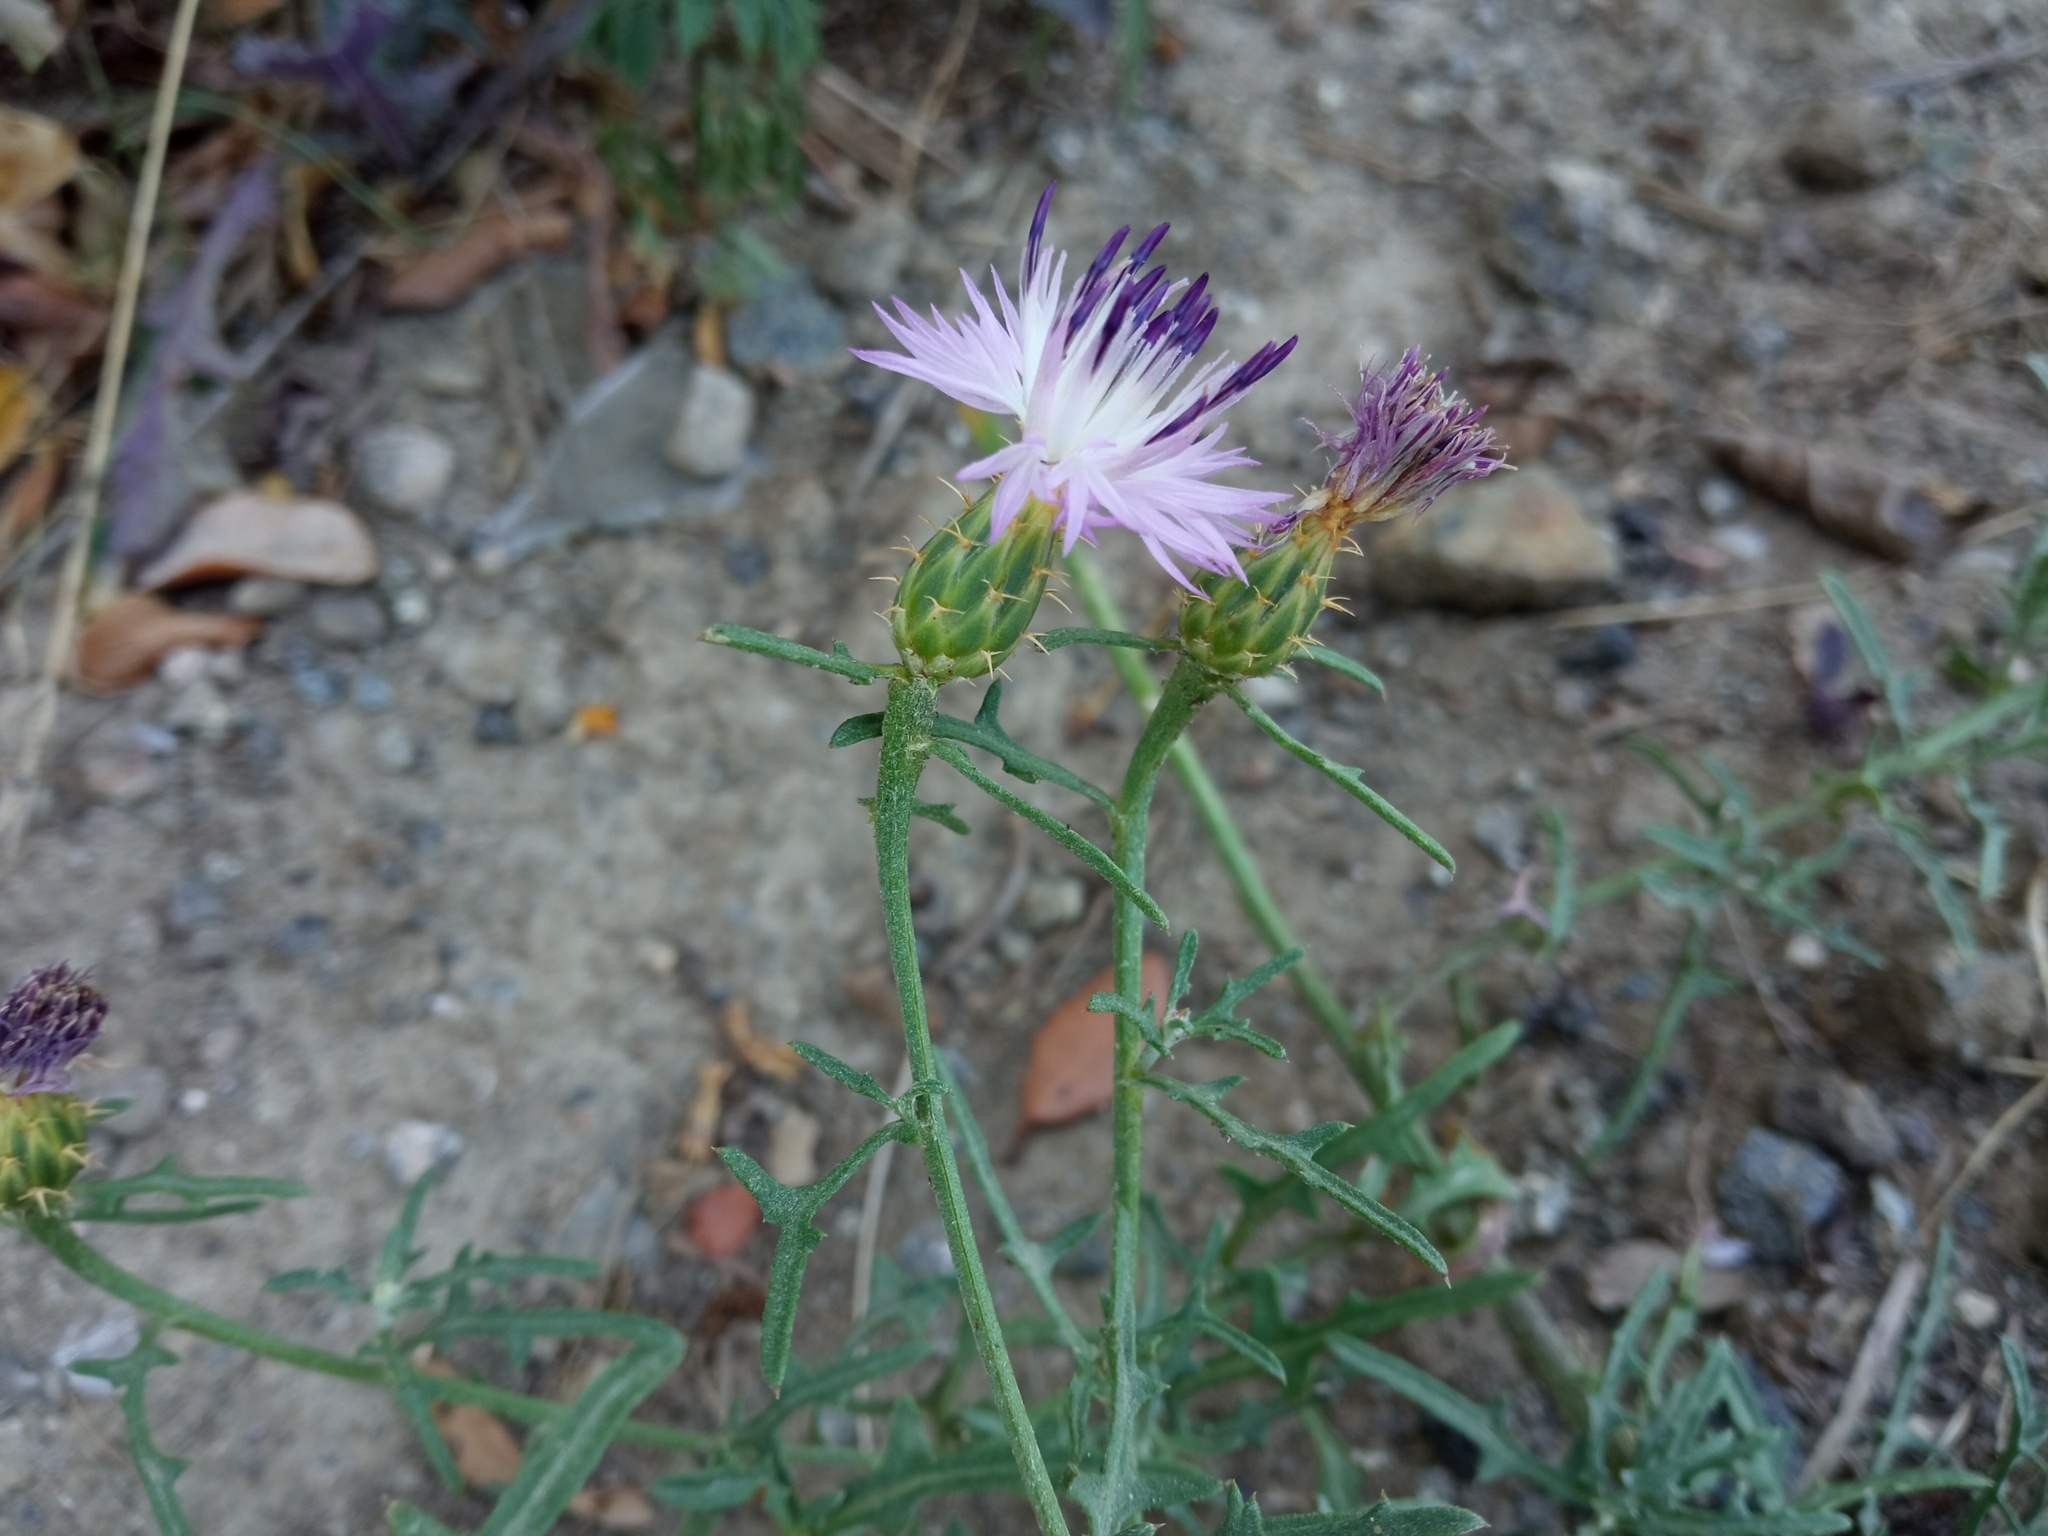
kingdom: Plantae
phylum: Tracheophyta
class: Magnoliopsida
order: Asterales
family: Asteraceae
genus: Centaurea
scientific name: Centaurea aspera
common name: Rough star-thistle
